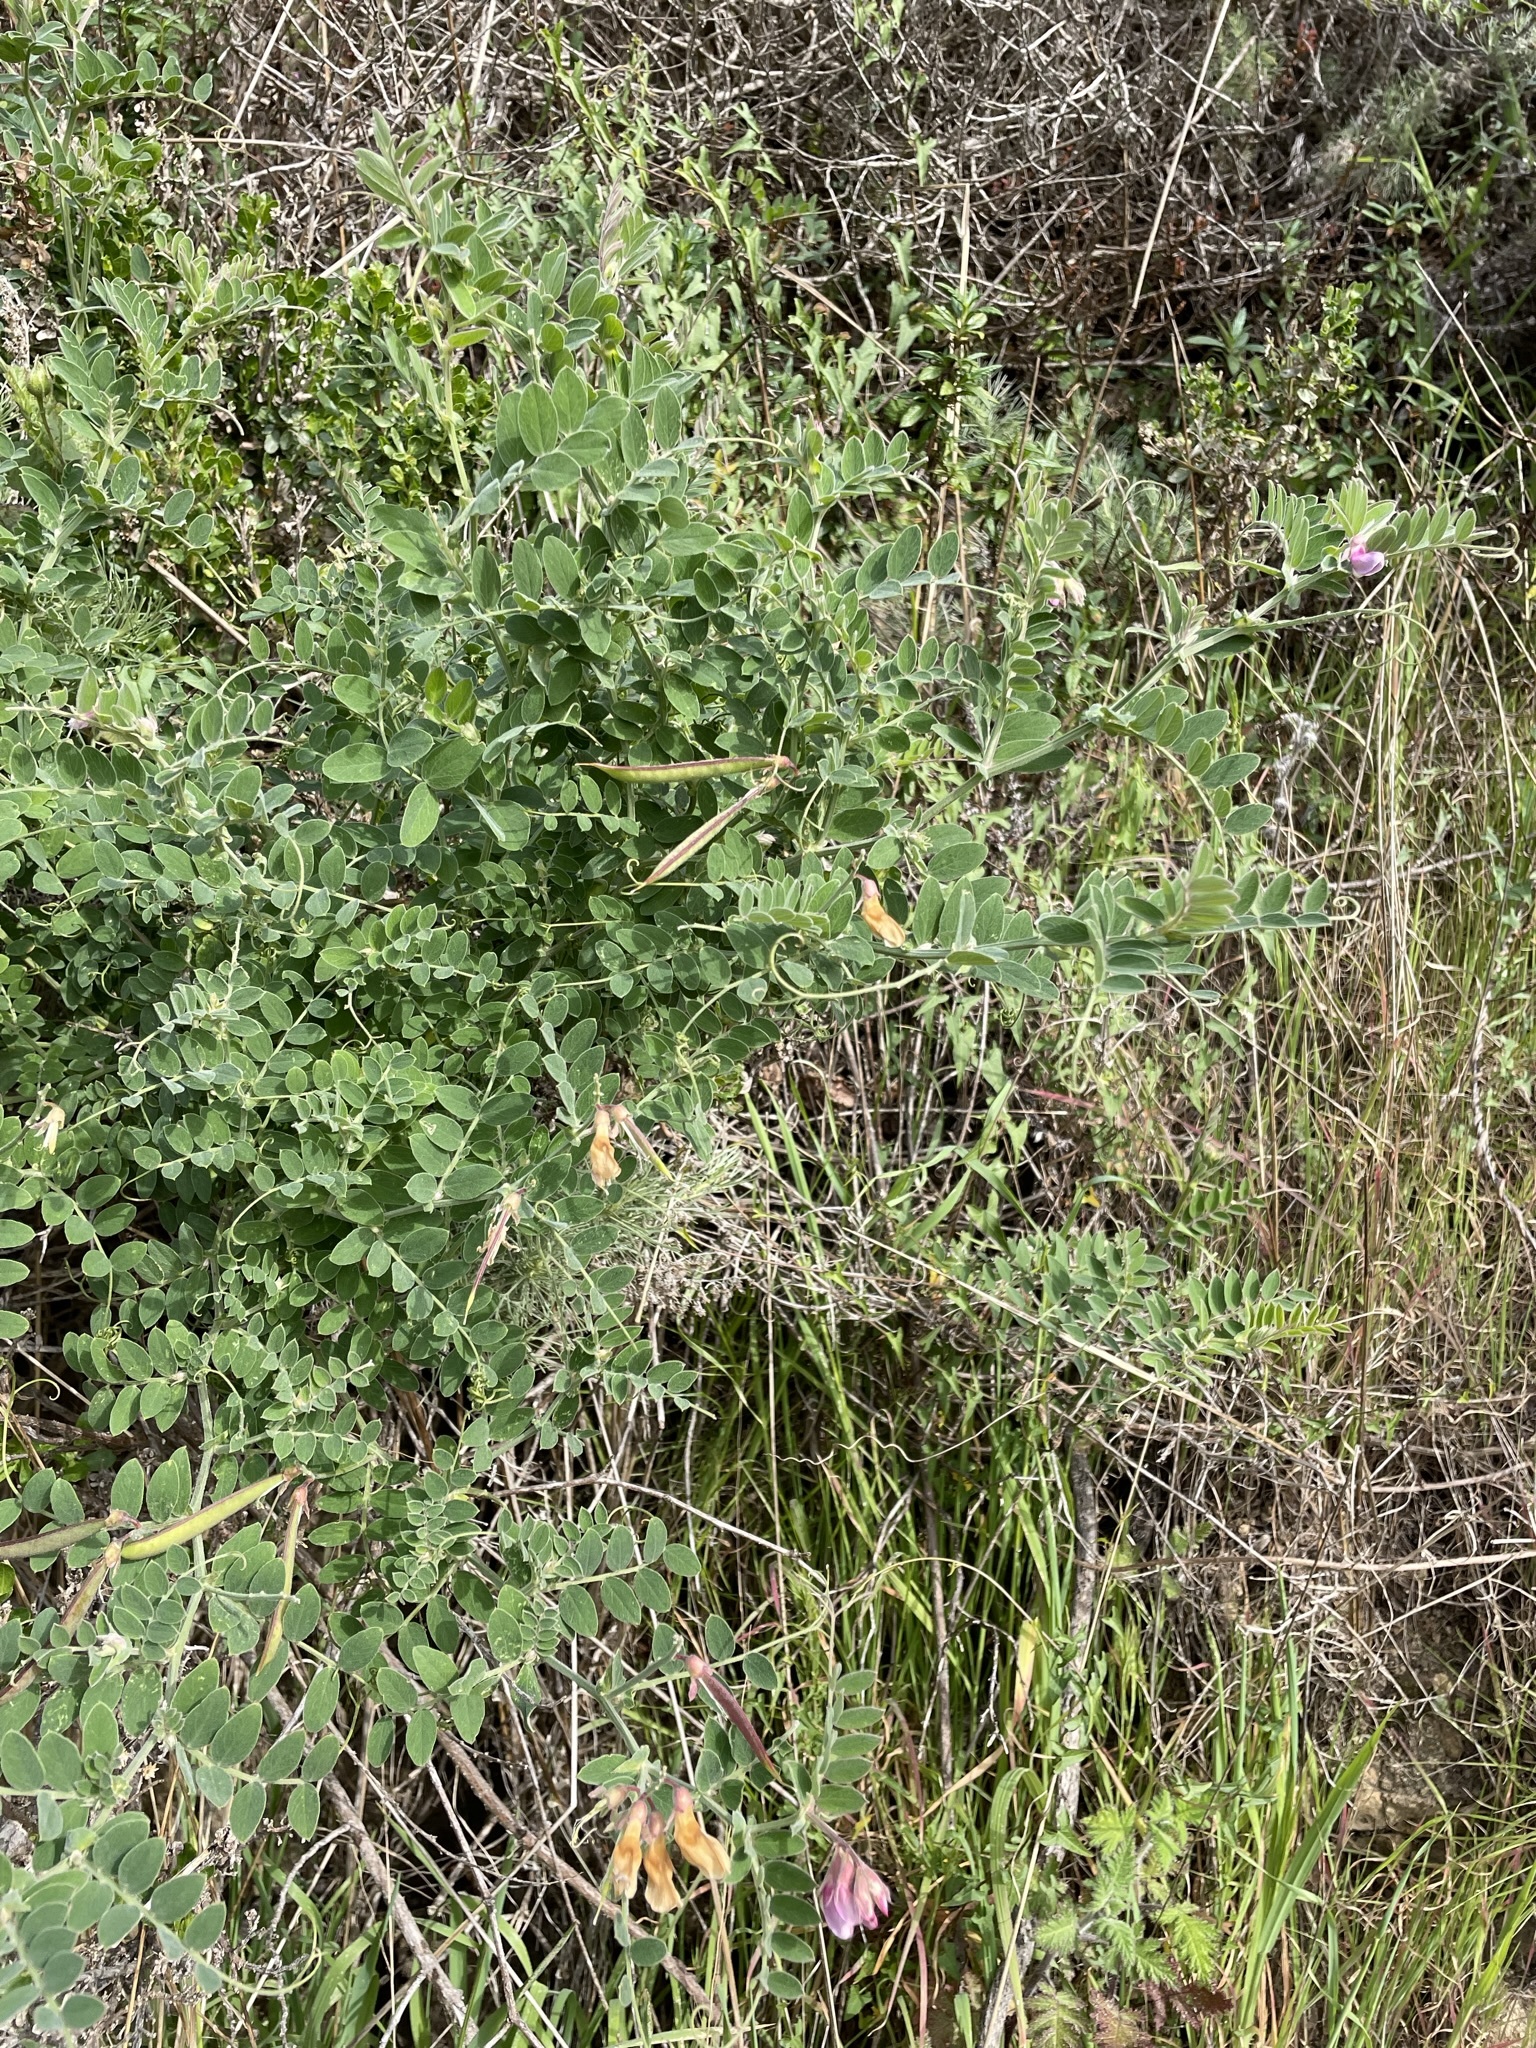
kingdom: Plantae
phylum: Tracheophyta
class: Magnoliopsida
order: Fabales
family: Fabaceae
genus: Lathyrus
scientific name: Lathyrus vestitus
